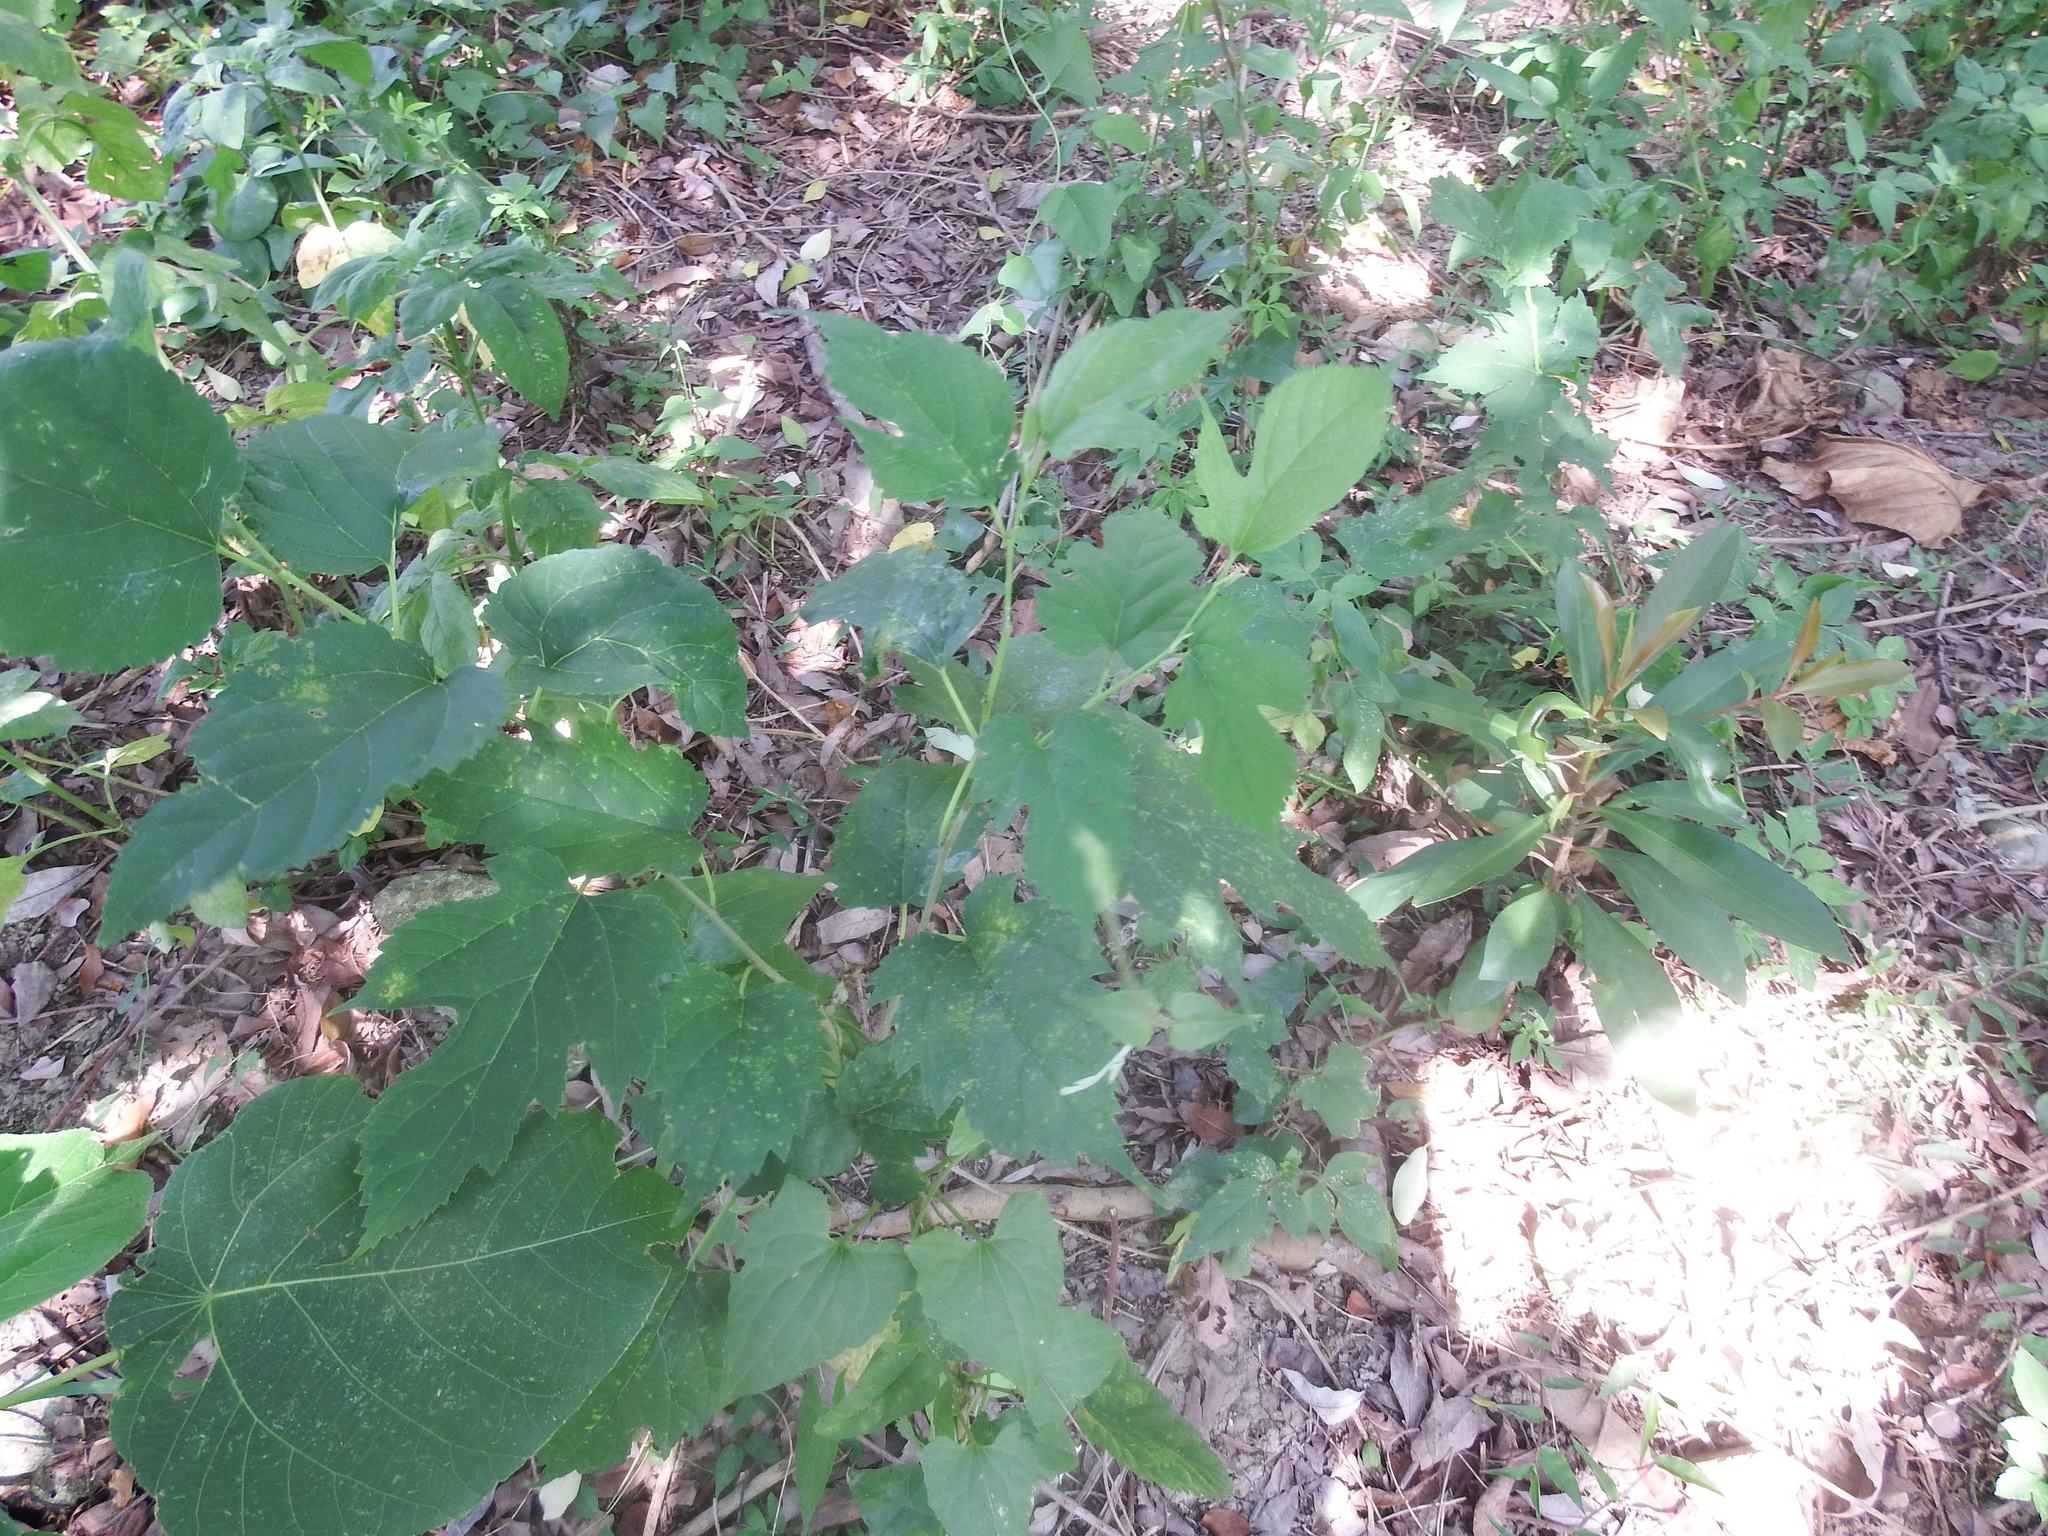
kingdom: Plantae
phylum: Tracheophyta
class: Magnoliopsida
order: Rosales
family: Moraceae
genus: Morus
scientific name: Morus indica
